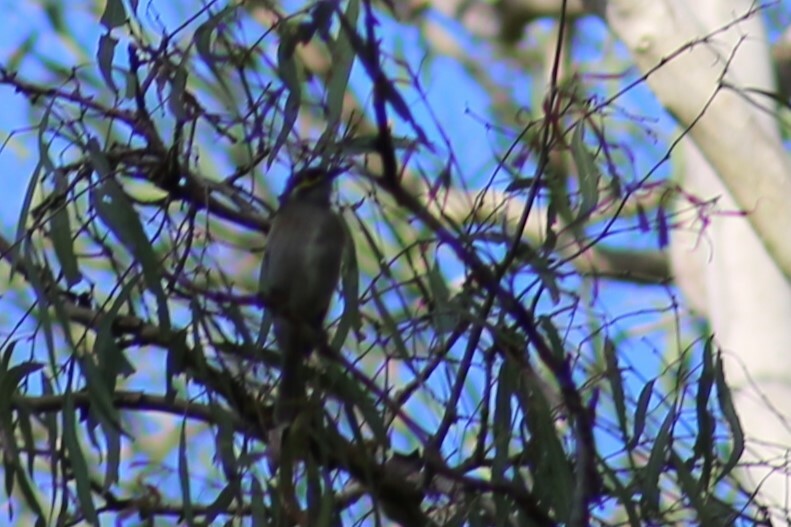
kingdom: Animalia
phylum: Chordata
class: Aves
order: Passeriformes
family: Meliphagidae
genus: Caligavis
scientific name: Caligavis chrysops
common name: Yellow-faced honeyeater
